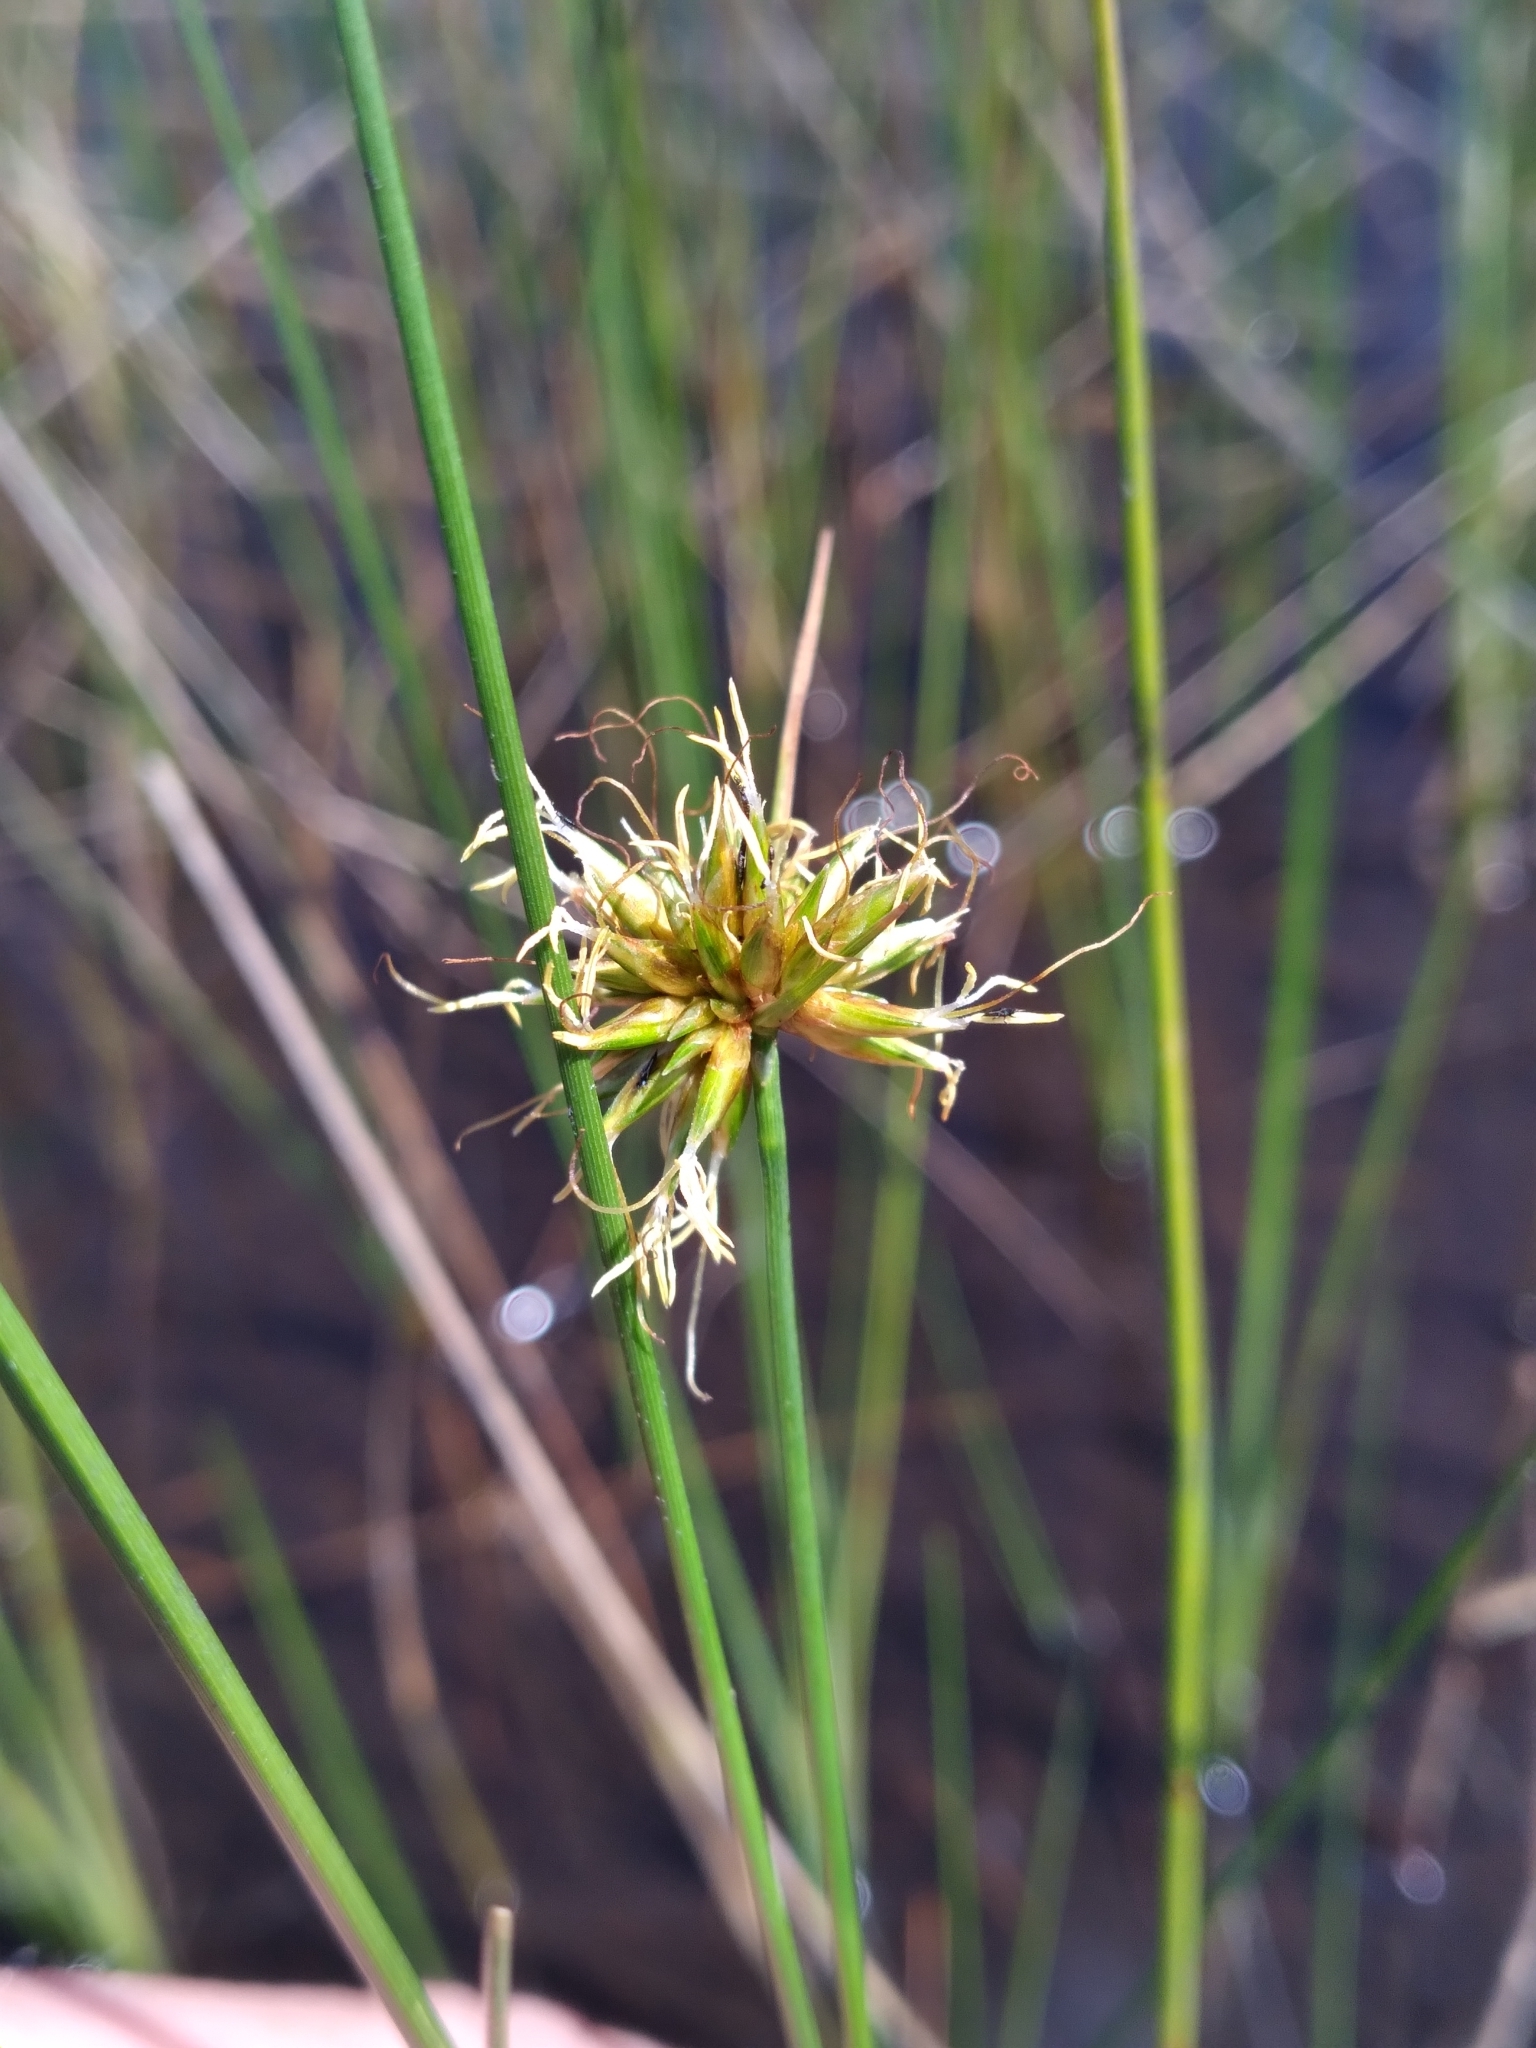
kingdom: Plantae
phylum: Tracheophyta
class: Liliopsida
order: Poales
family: Cyperaceae
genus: Rhynchospora
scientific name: Rhynchospora tracyi
